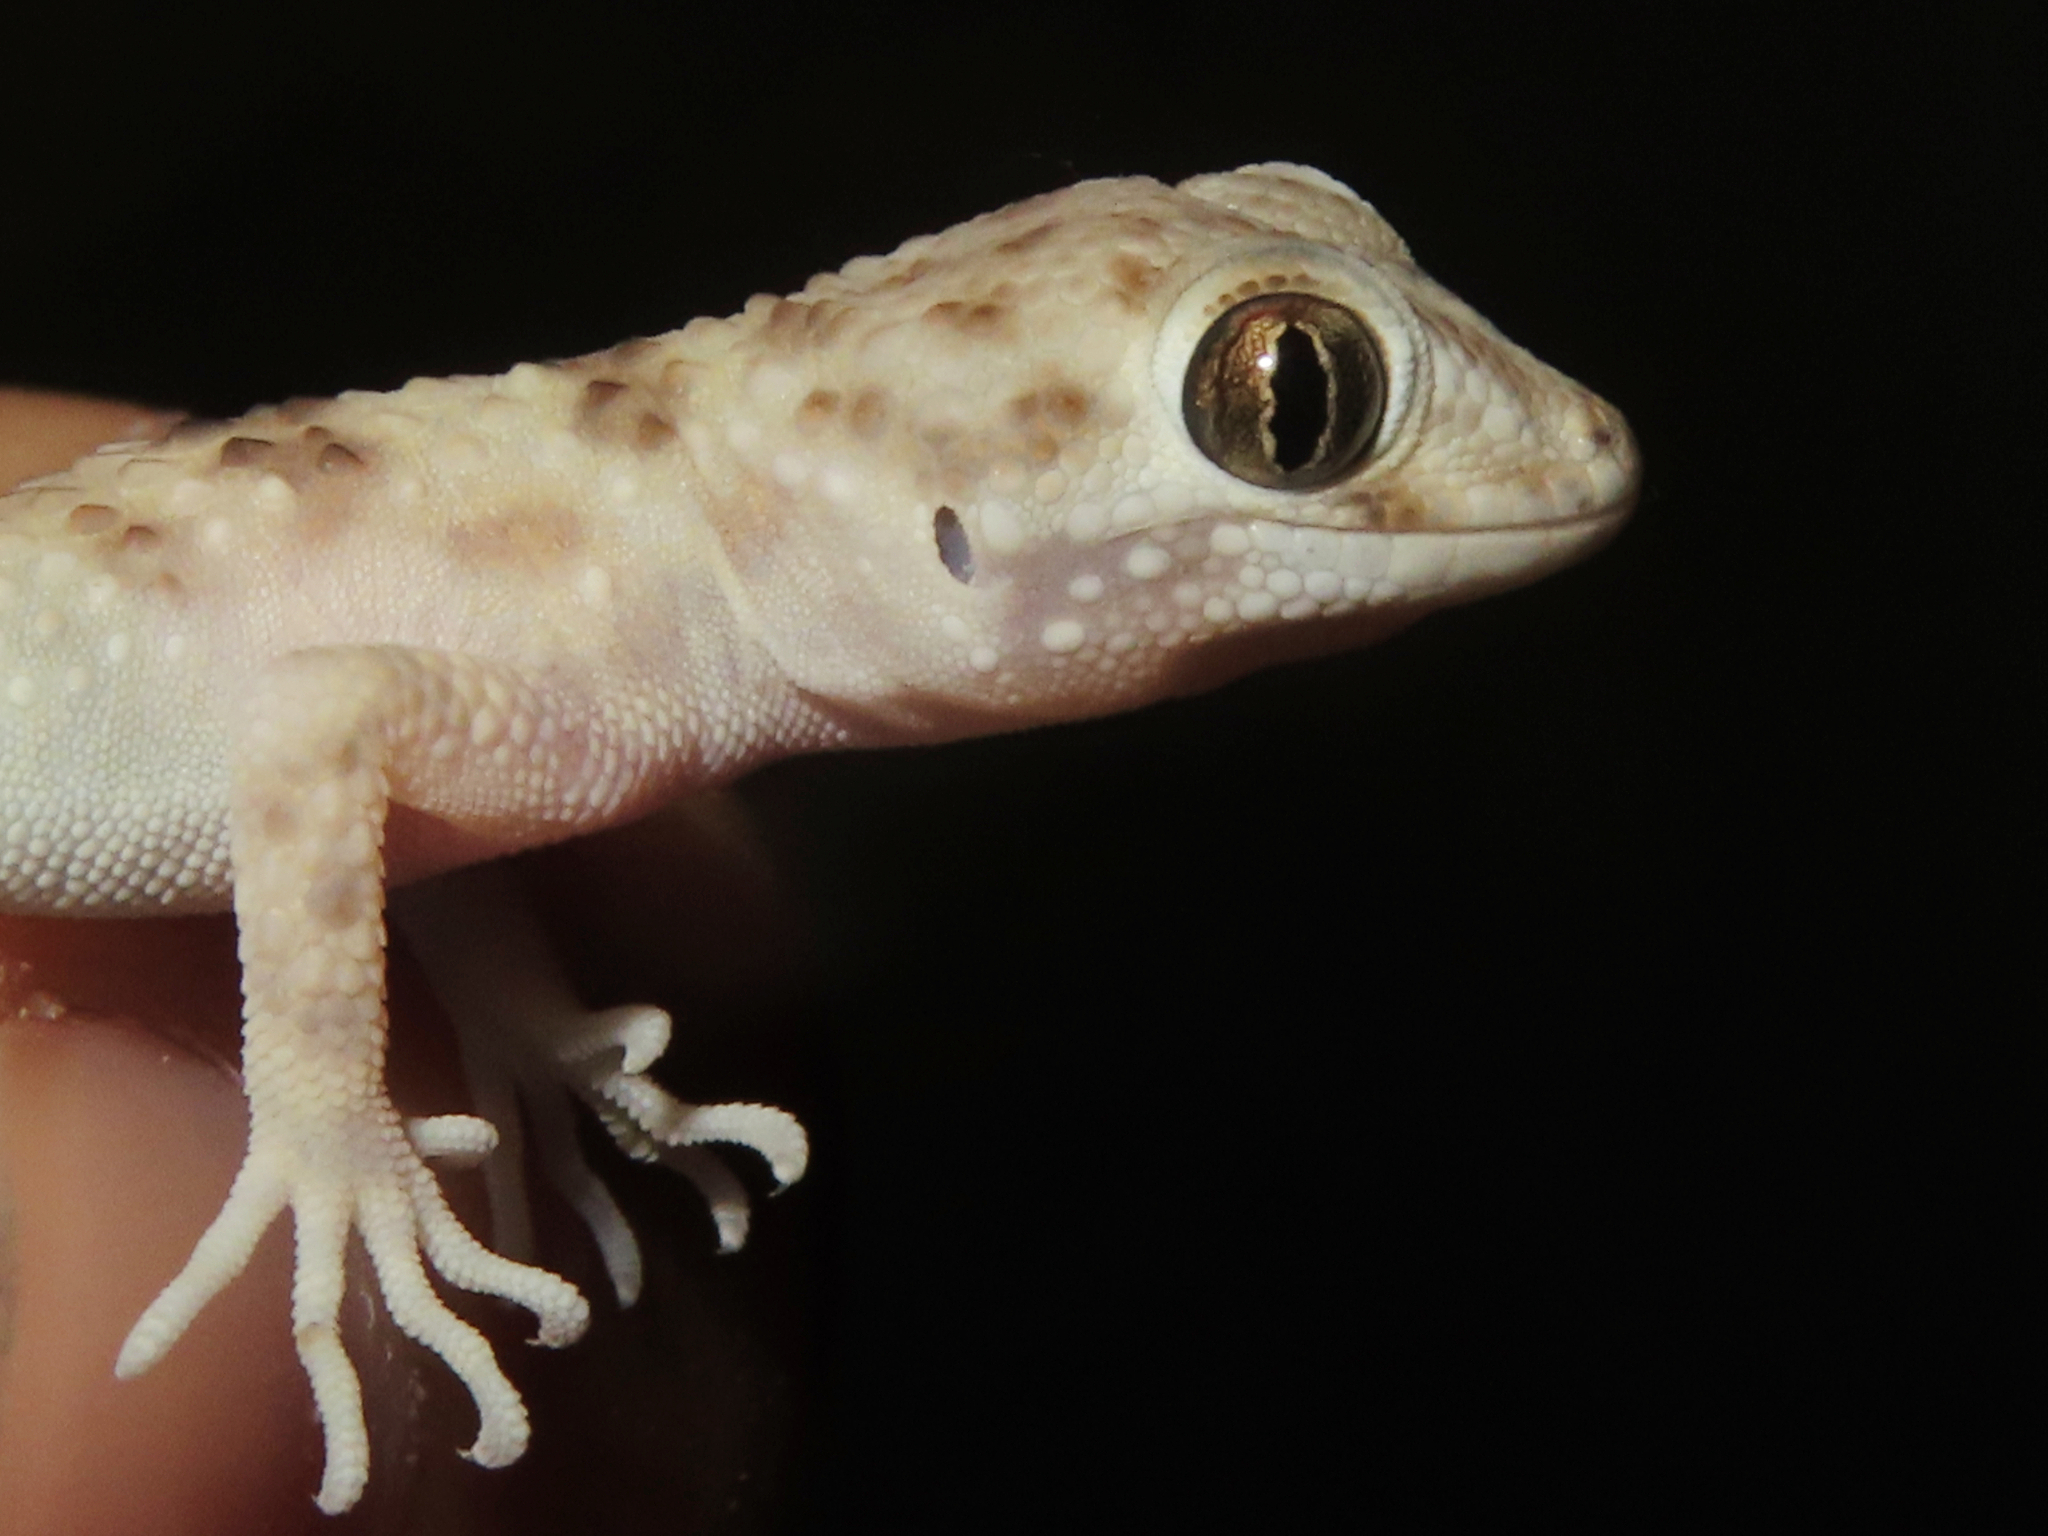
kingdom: Animalia
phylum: Chordata
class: Squamata
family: Gekkonidae
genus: Tenuidactylus
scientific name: Tenuidactylus caspius
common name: Caspian bent-toed gecko
